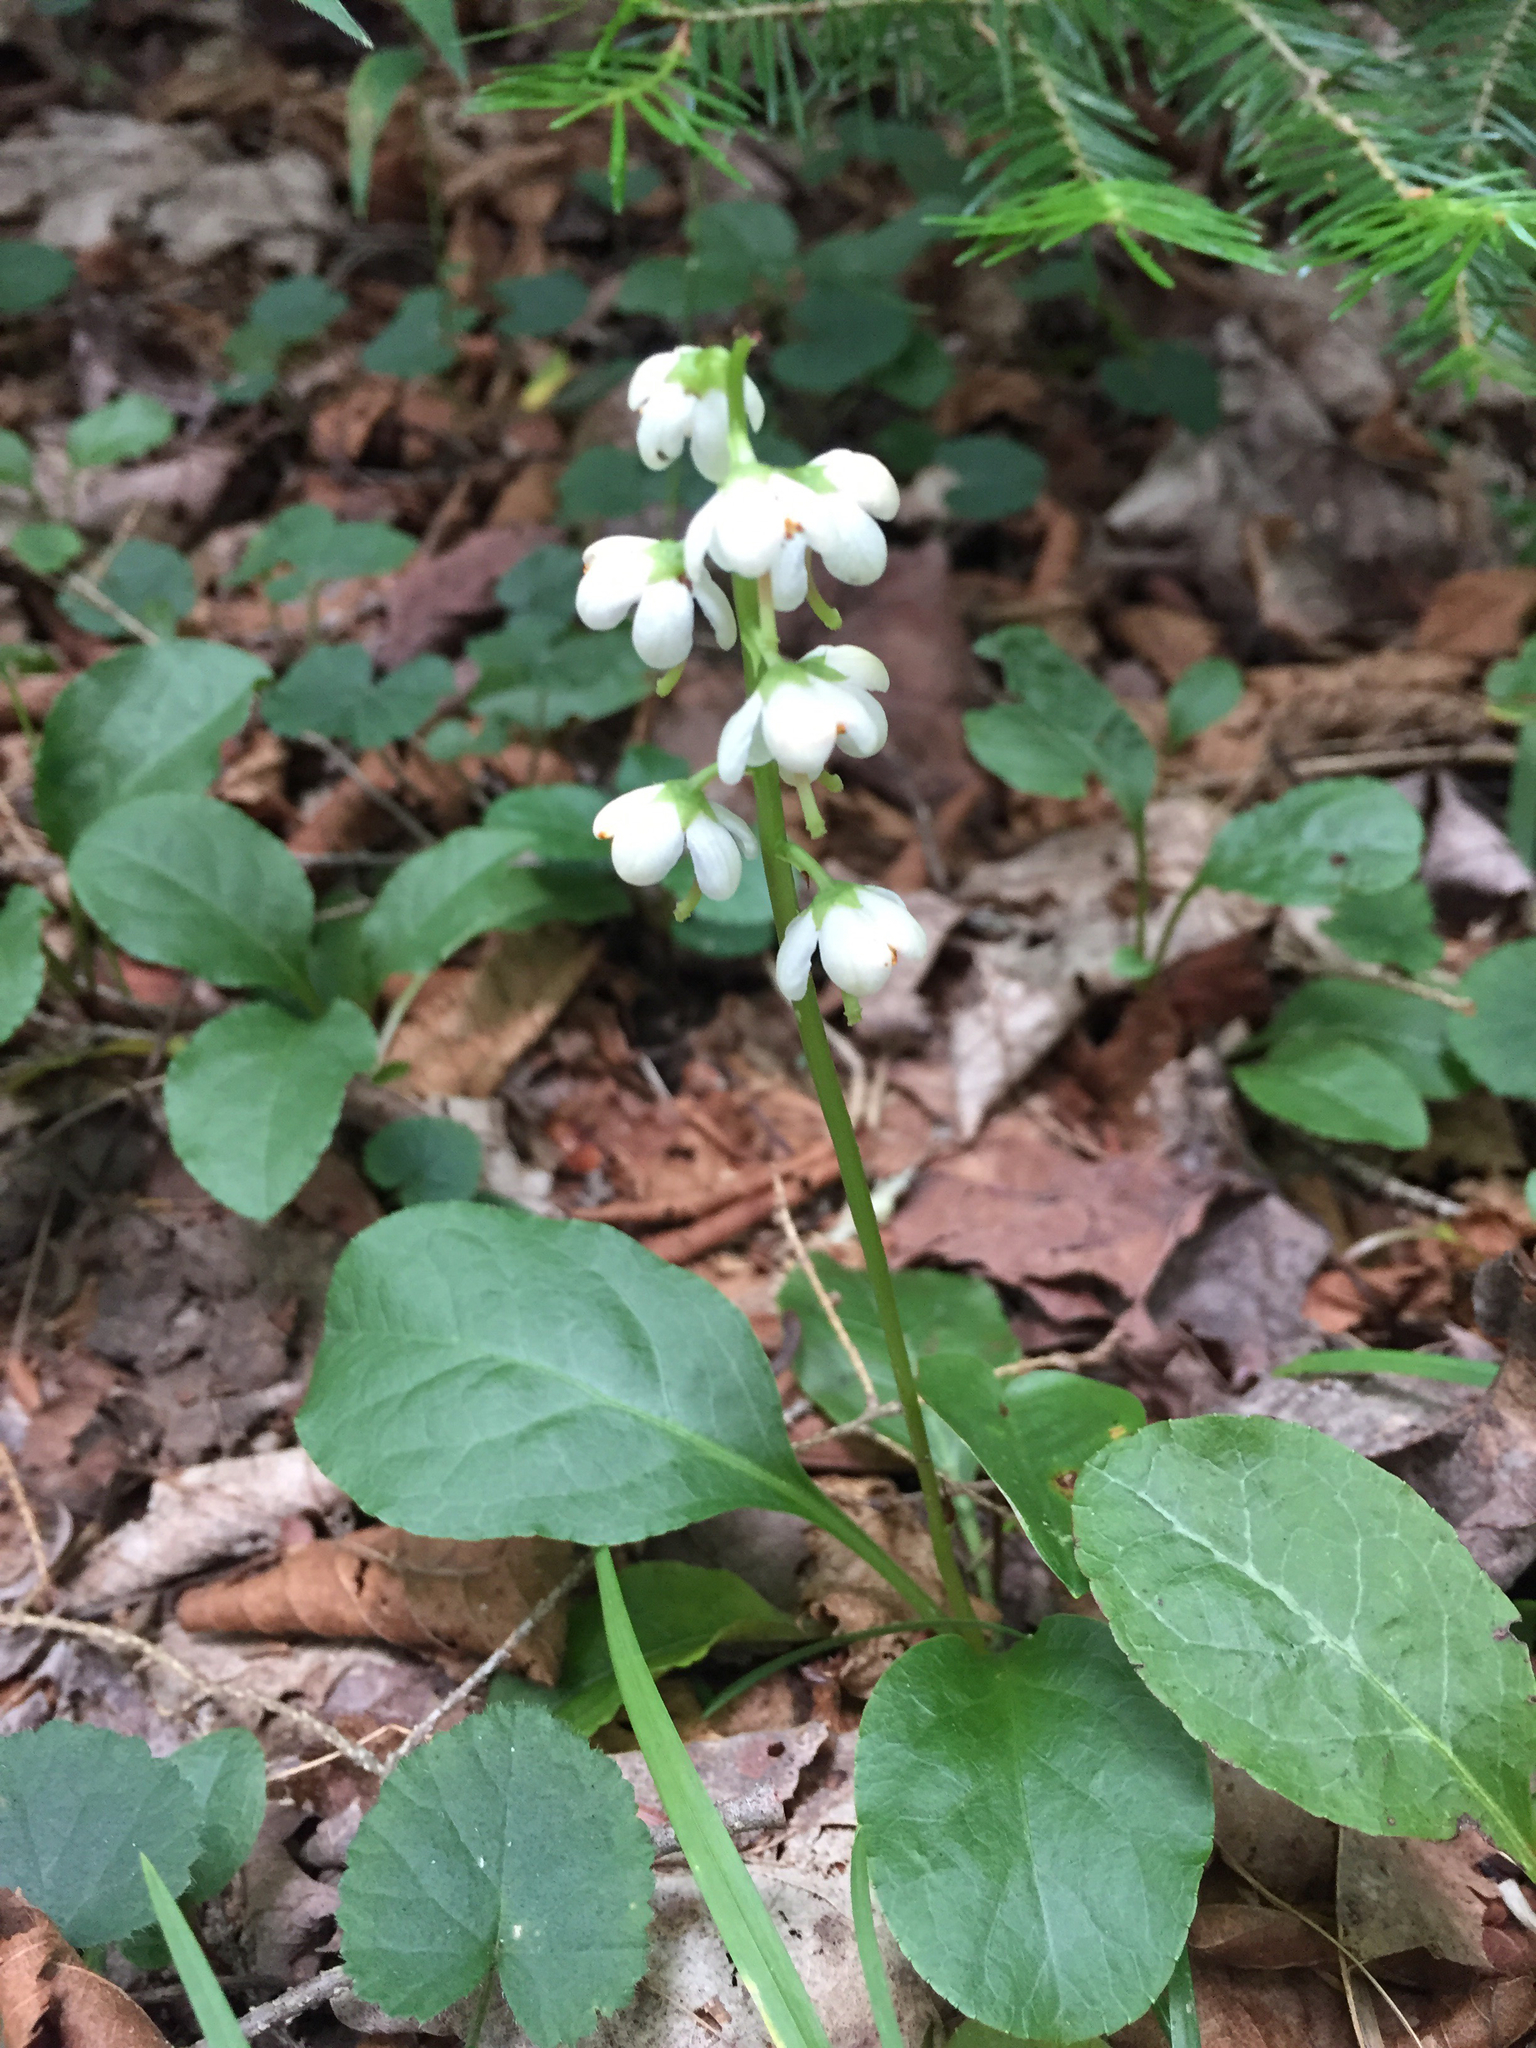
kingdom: Plantae
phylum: Tracheophyta
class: Magnoliopsida
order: Ericales
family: Ericaceae
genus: Pyrola
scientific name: Pyrola elliptica
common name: Shinleaf
